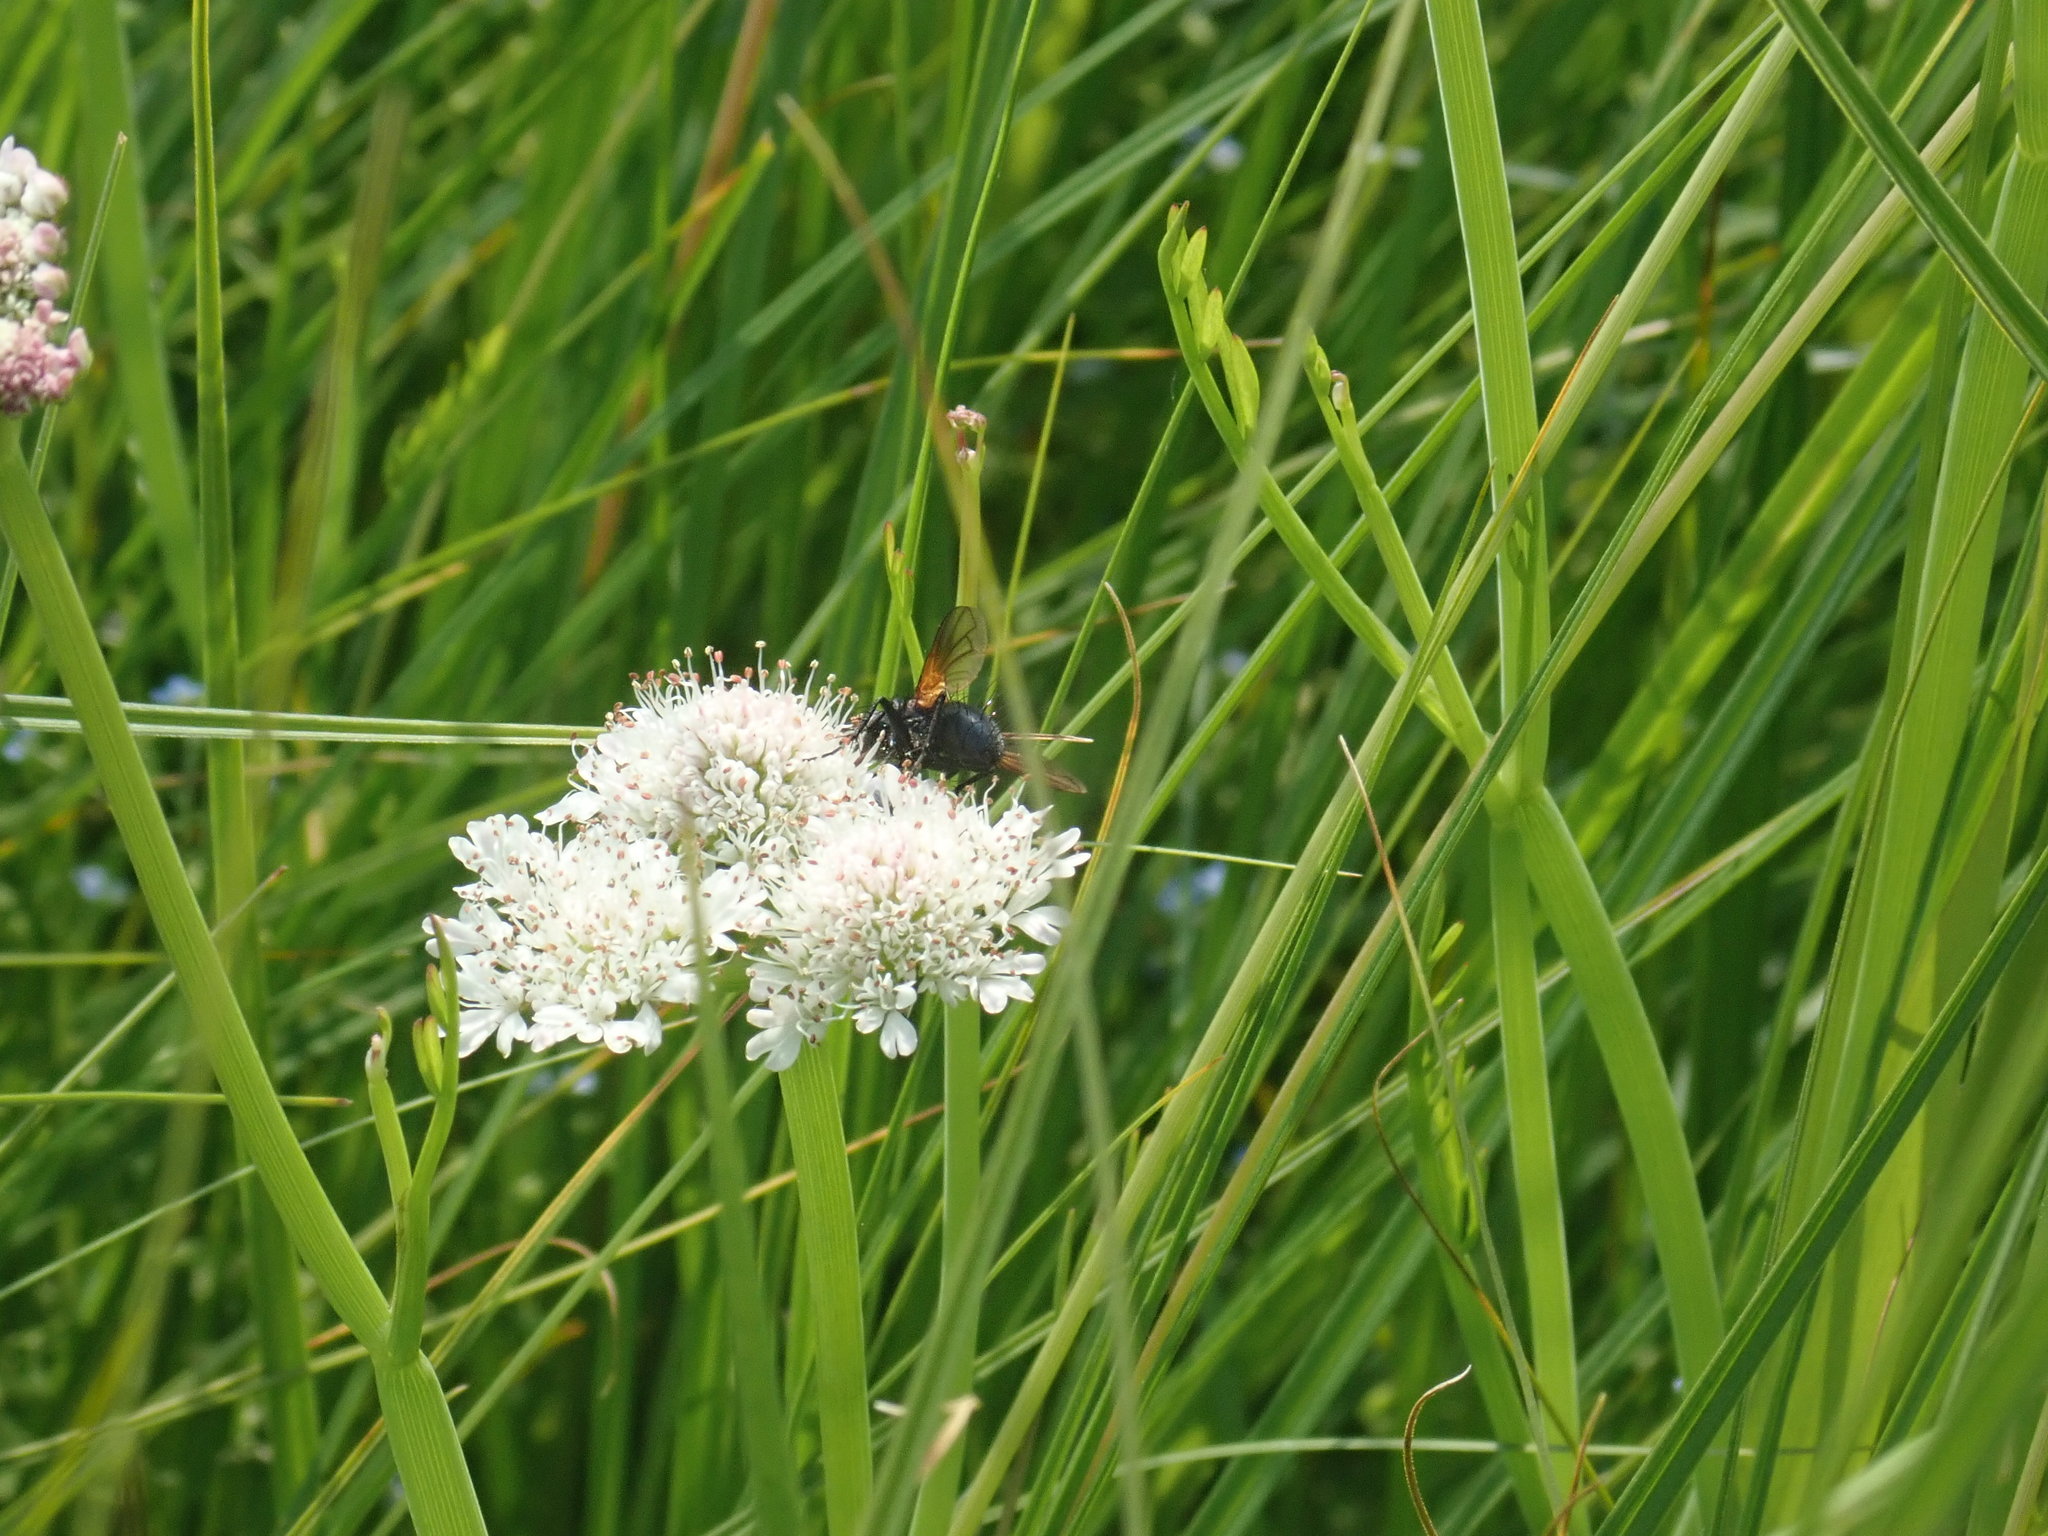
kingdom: Animalia
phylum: Arthropoda
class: Insecta
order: Diptera
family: Tachinidae
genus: Zophomyia
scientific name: Zophomyia temula
